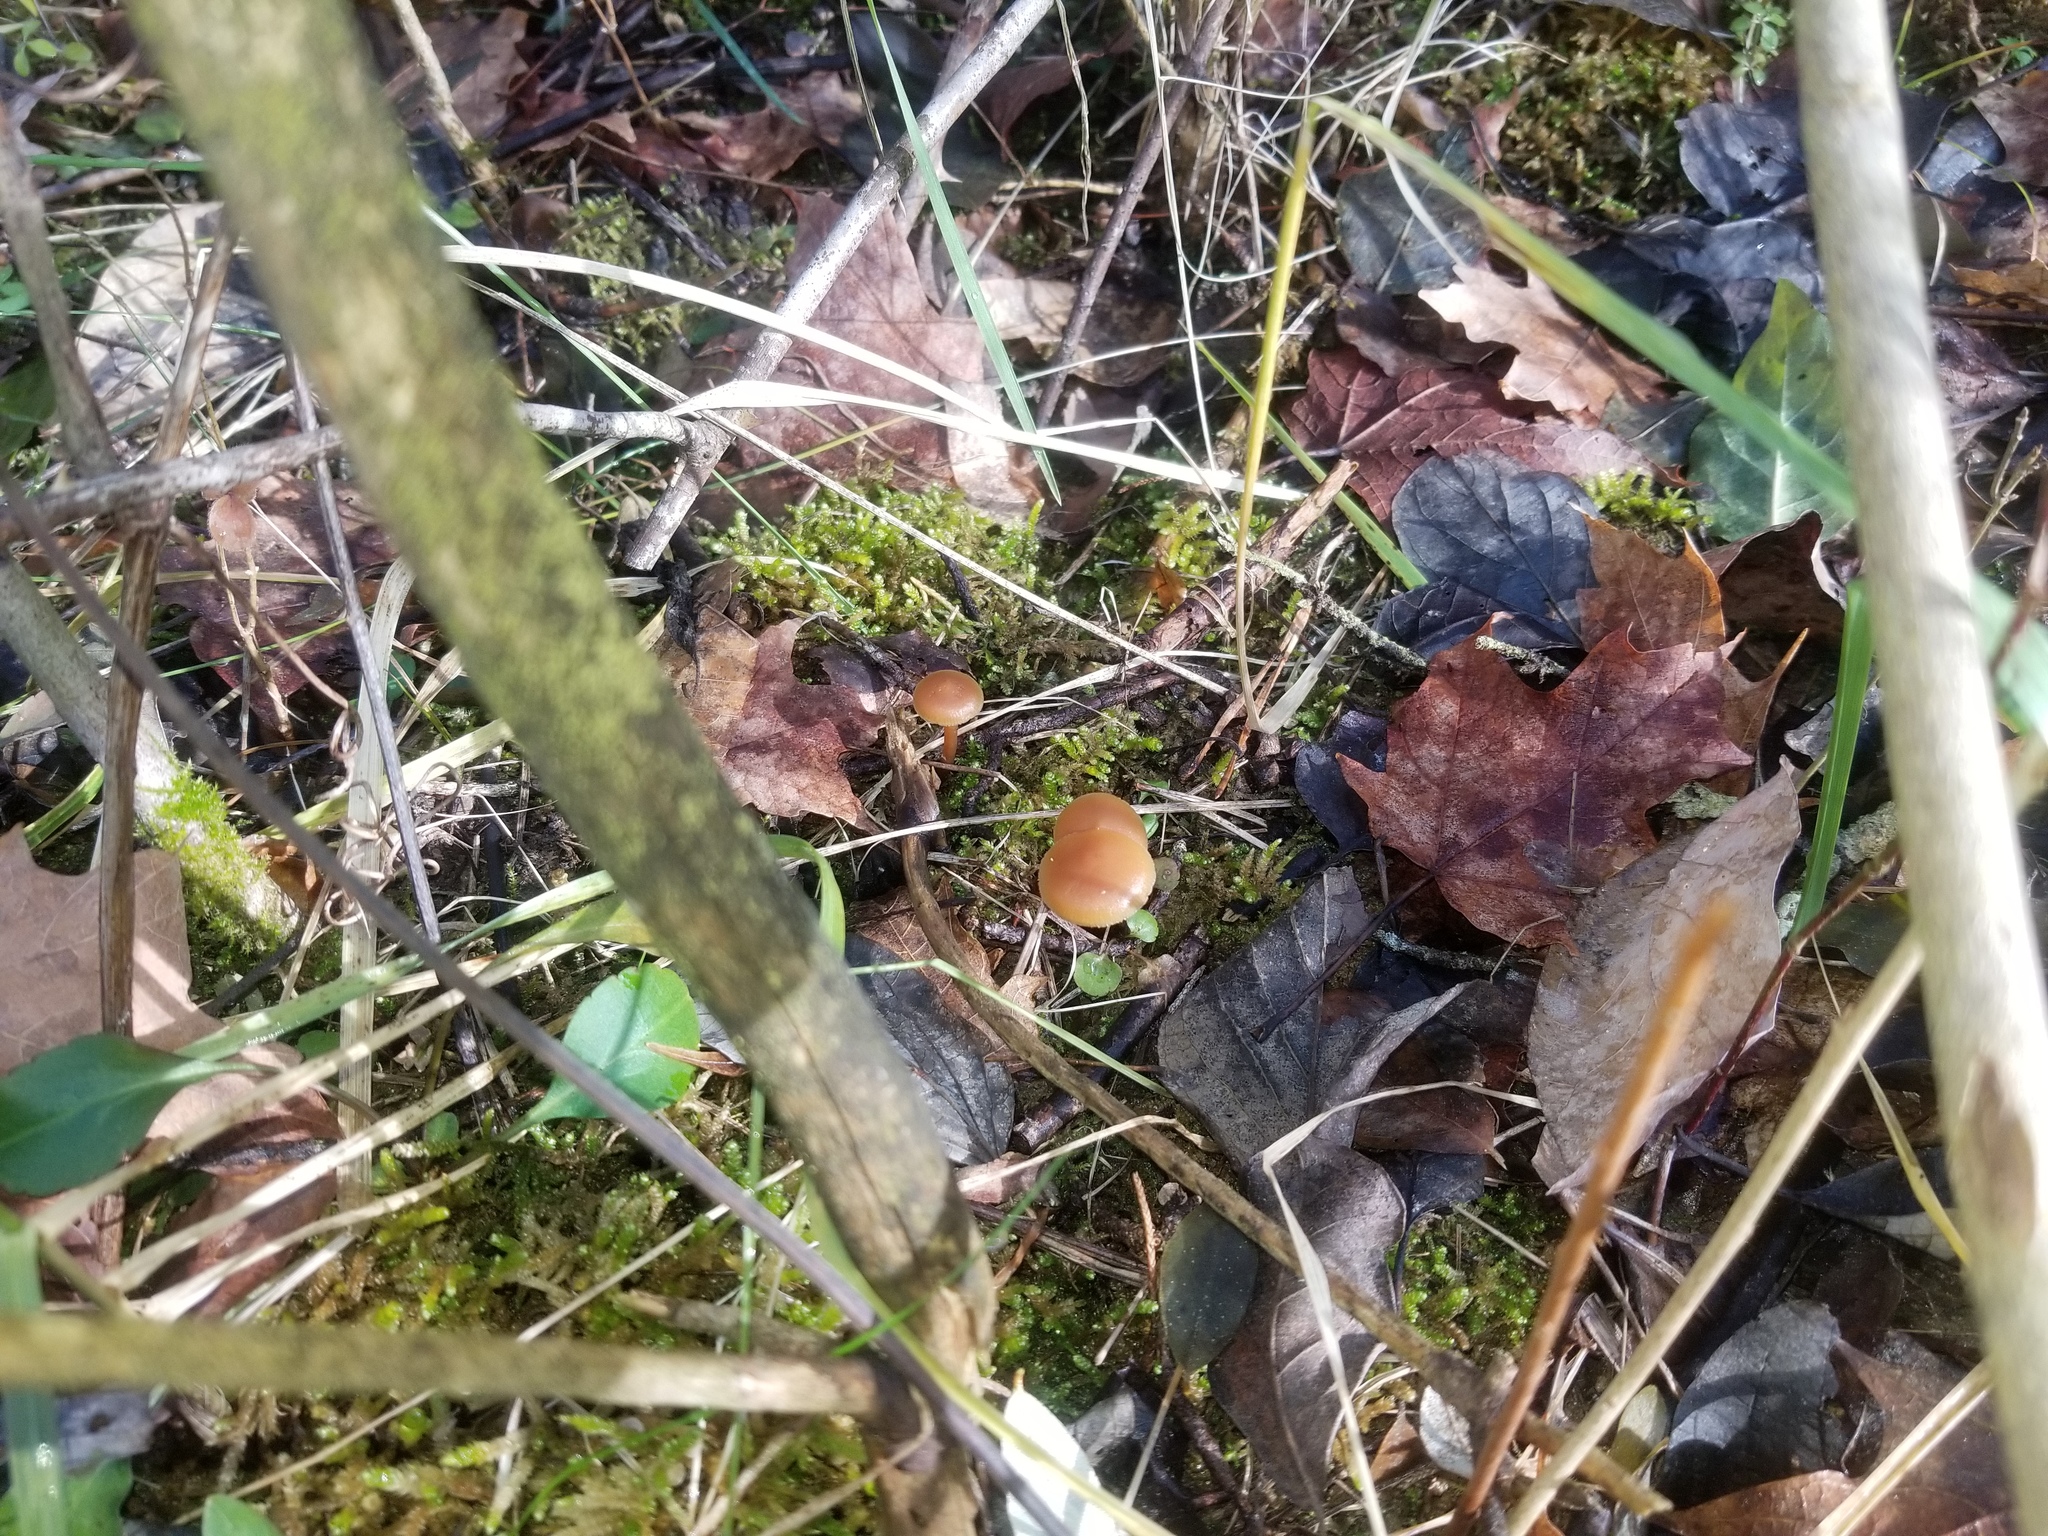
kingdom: Fungi
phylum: Basidiomycota
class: Agaricomycetes
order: Agaricales
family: Hymenogastraceae
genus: Galerina
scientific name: Galerina marginata
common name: Funeral bell
